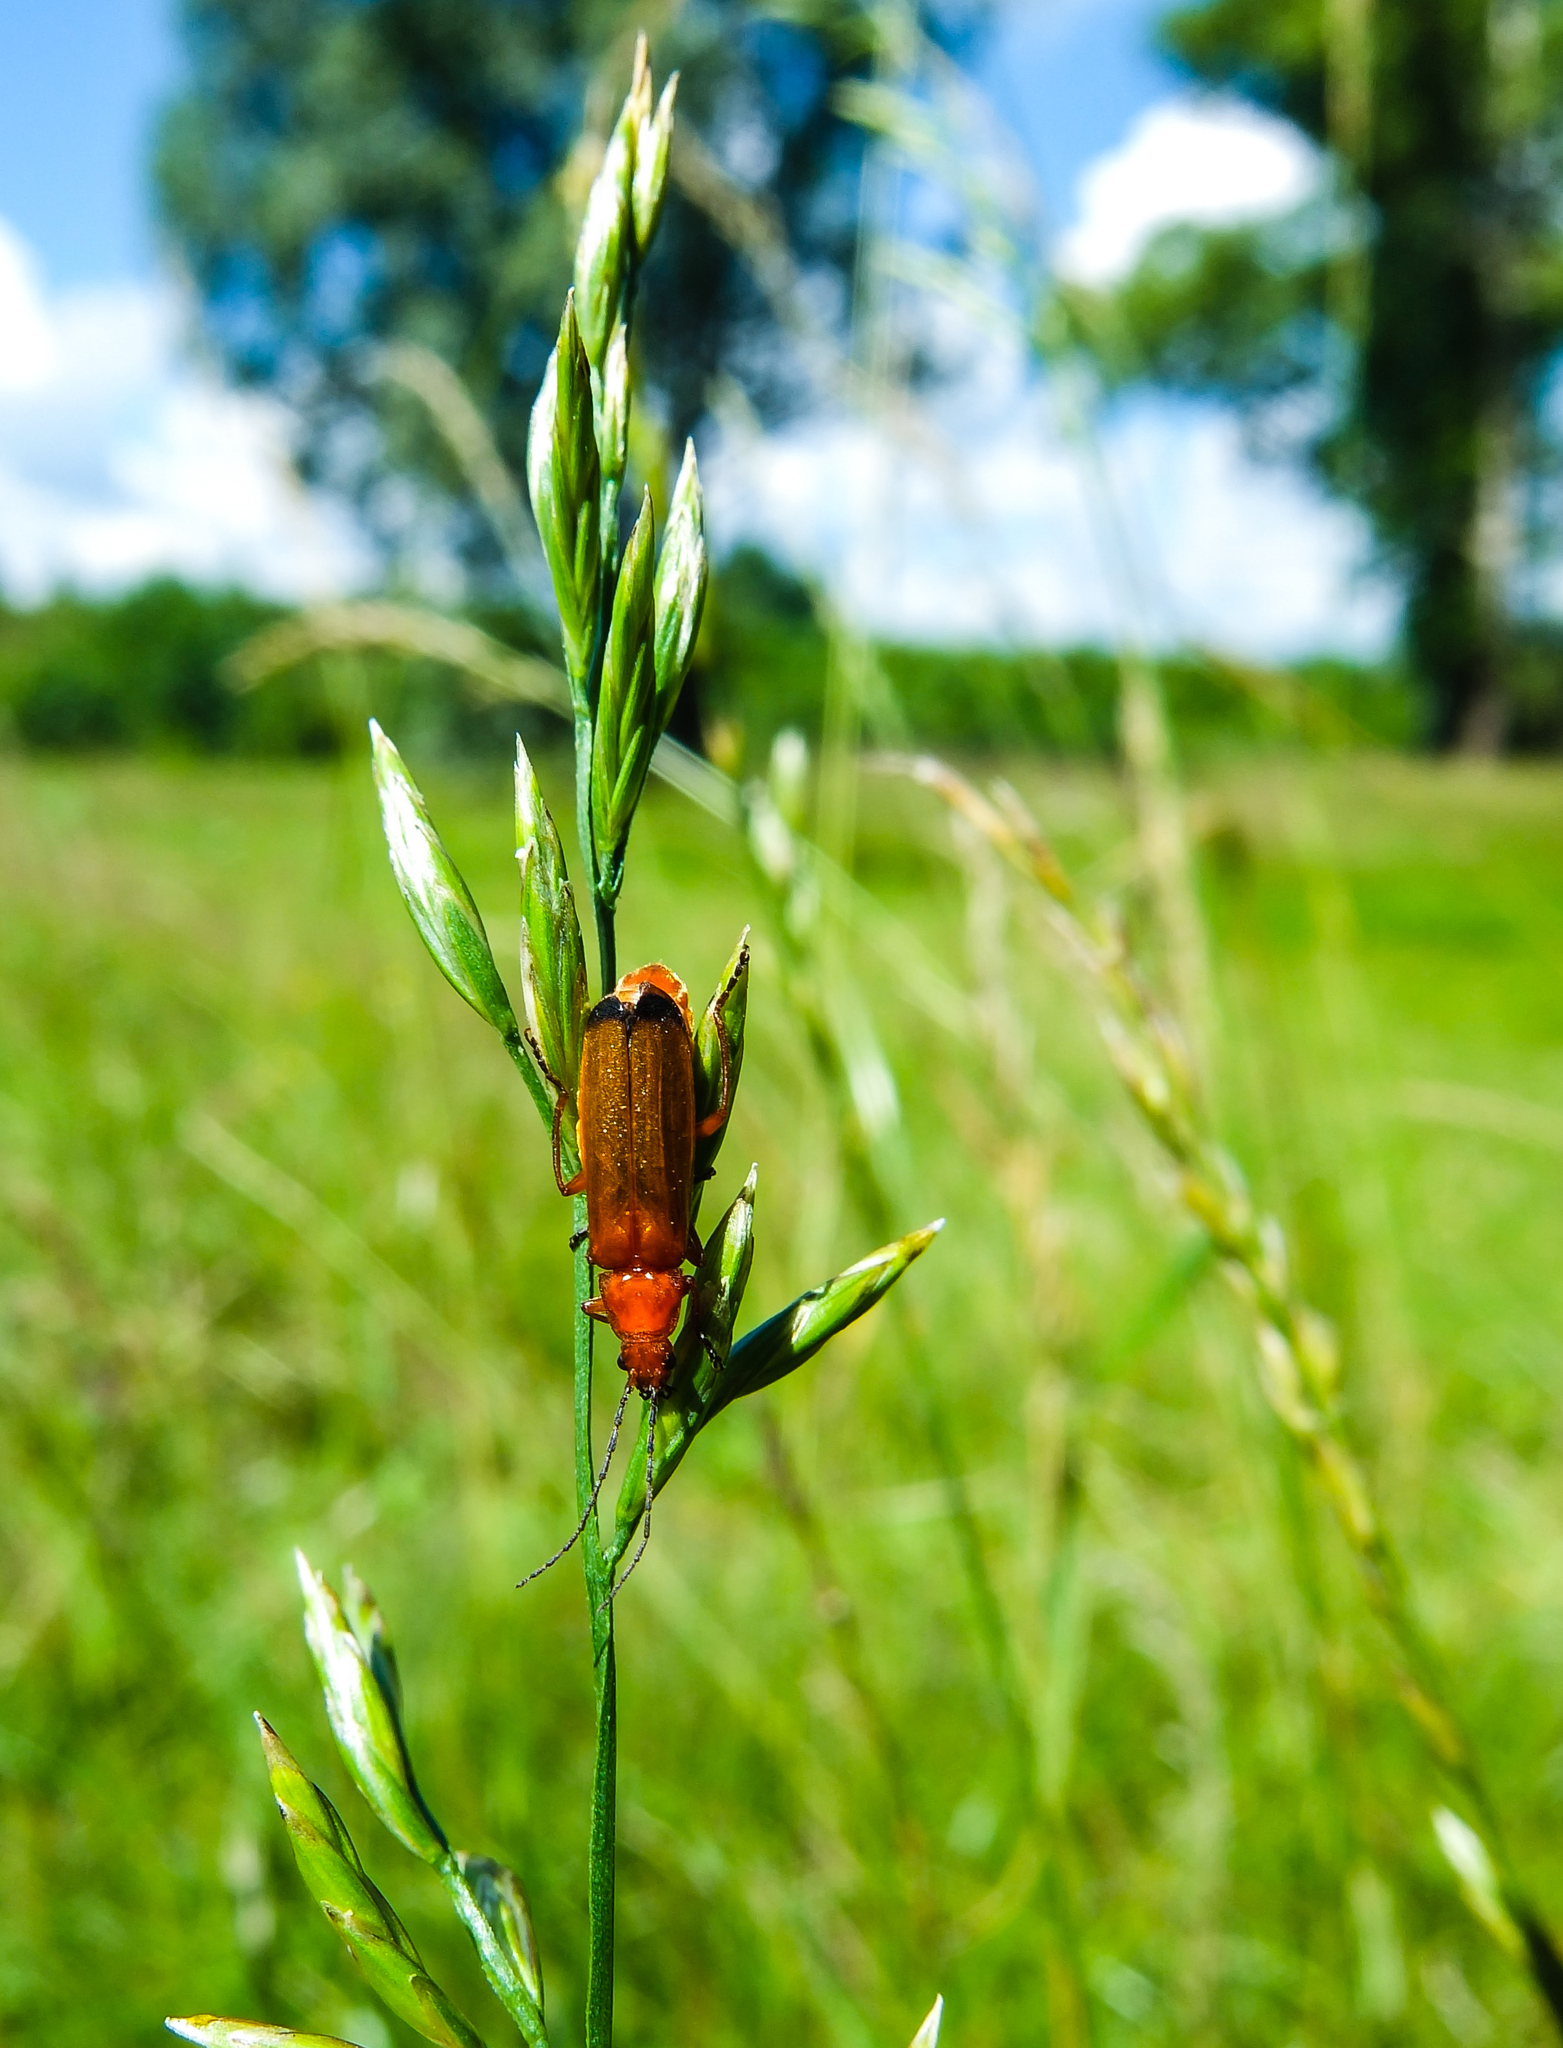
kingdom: Animalia
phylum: Arthropoda
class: Insecta
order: Coleoptera
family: Cantharidae
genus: Rhagonycha
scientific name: Rhagonycha fulva
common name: Common red soldier beetle
